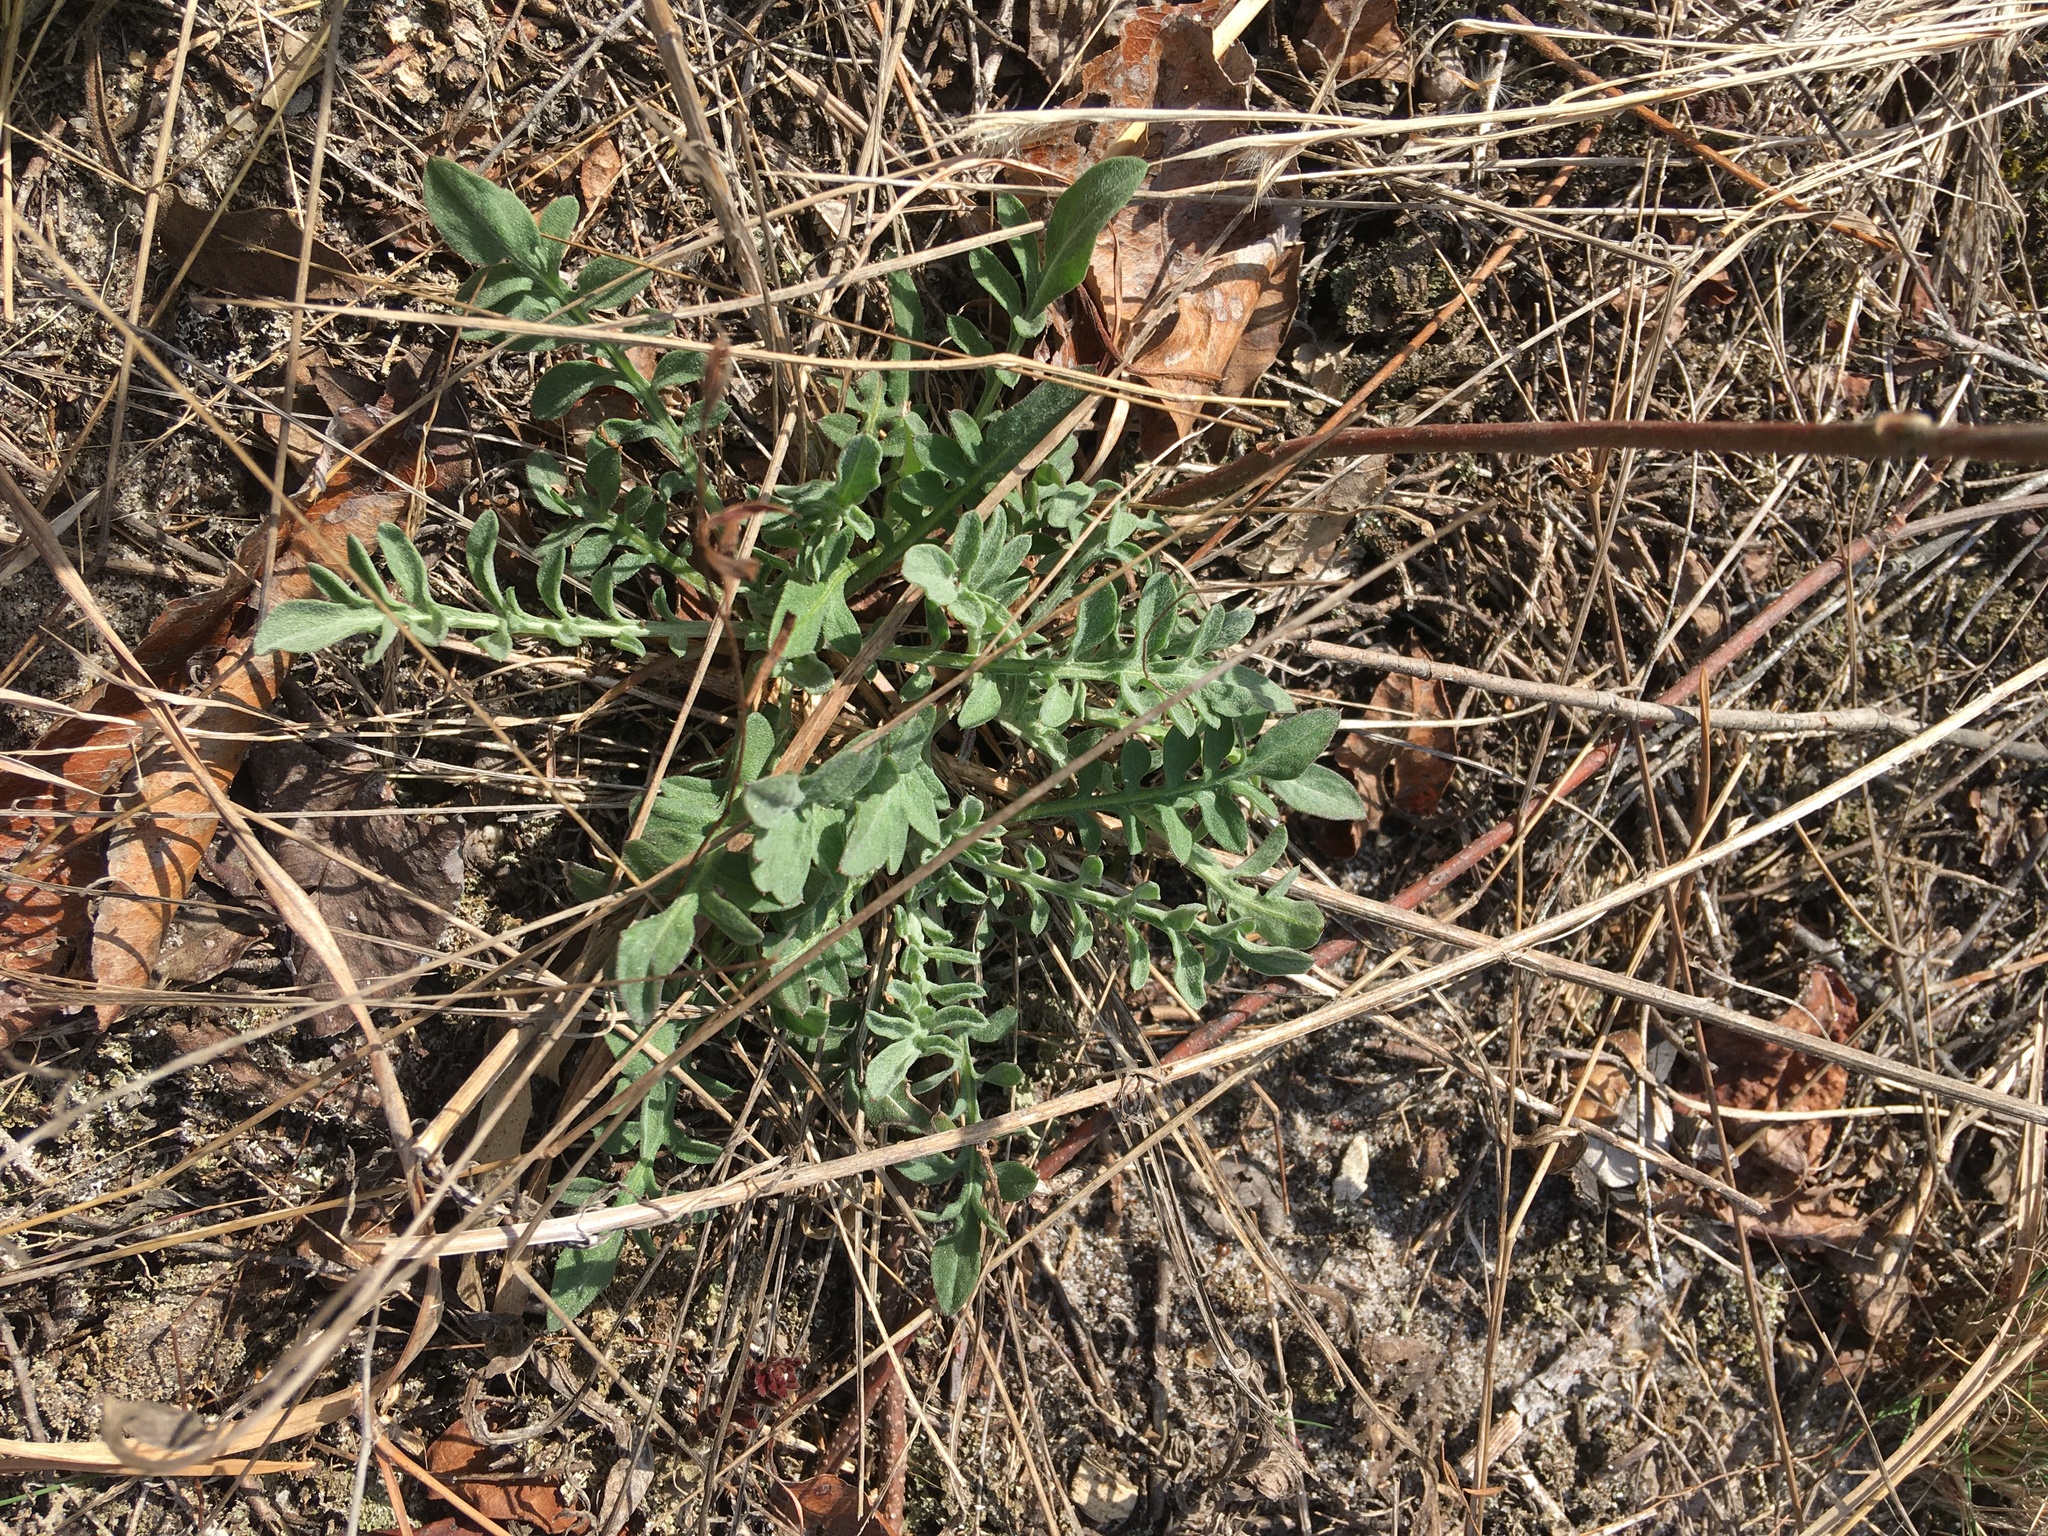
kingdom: Plantae
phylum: Tracheophyta
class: Magnoliopsida
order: Asterales
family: Asteraceae
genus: Centaurea
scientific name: Centaurea stoebe
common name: Spotted knapweed
